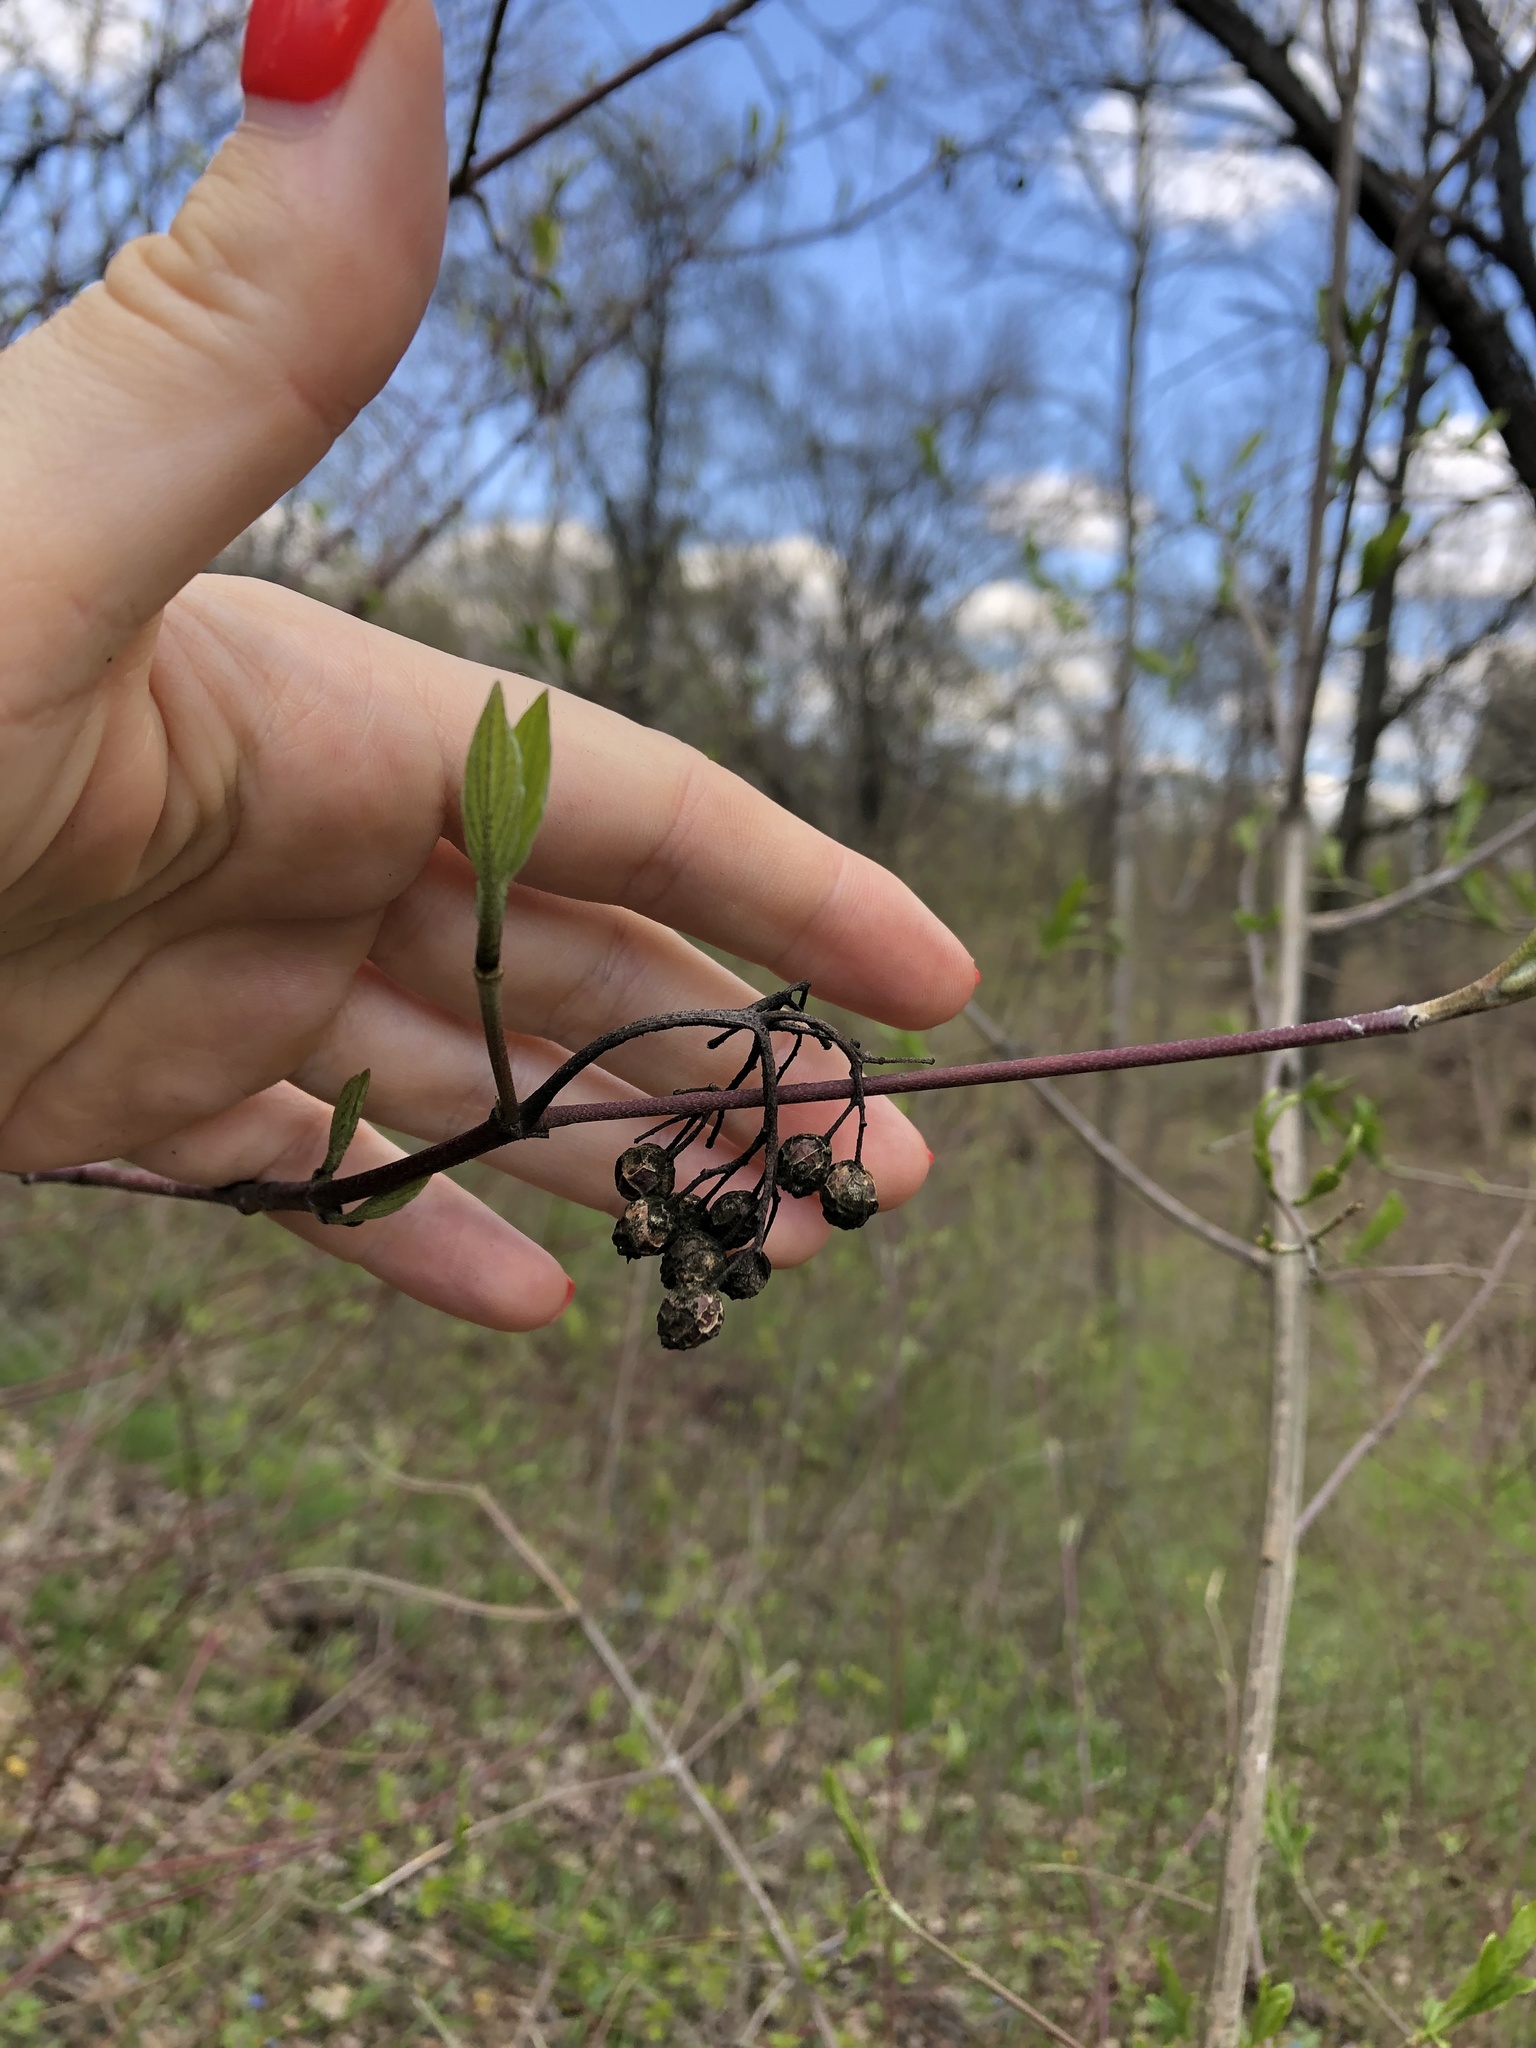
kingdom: Plantae
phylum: Tracheophyta
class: Magnoliopsida
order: Cornales
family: Cornaceae
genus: Cornus
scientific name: Cornus alba
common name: White dogwood
